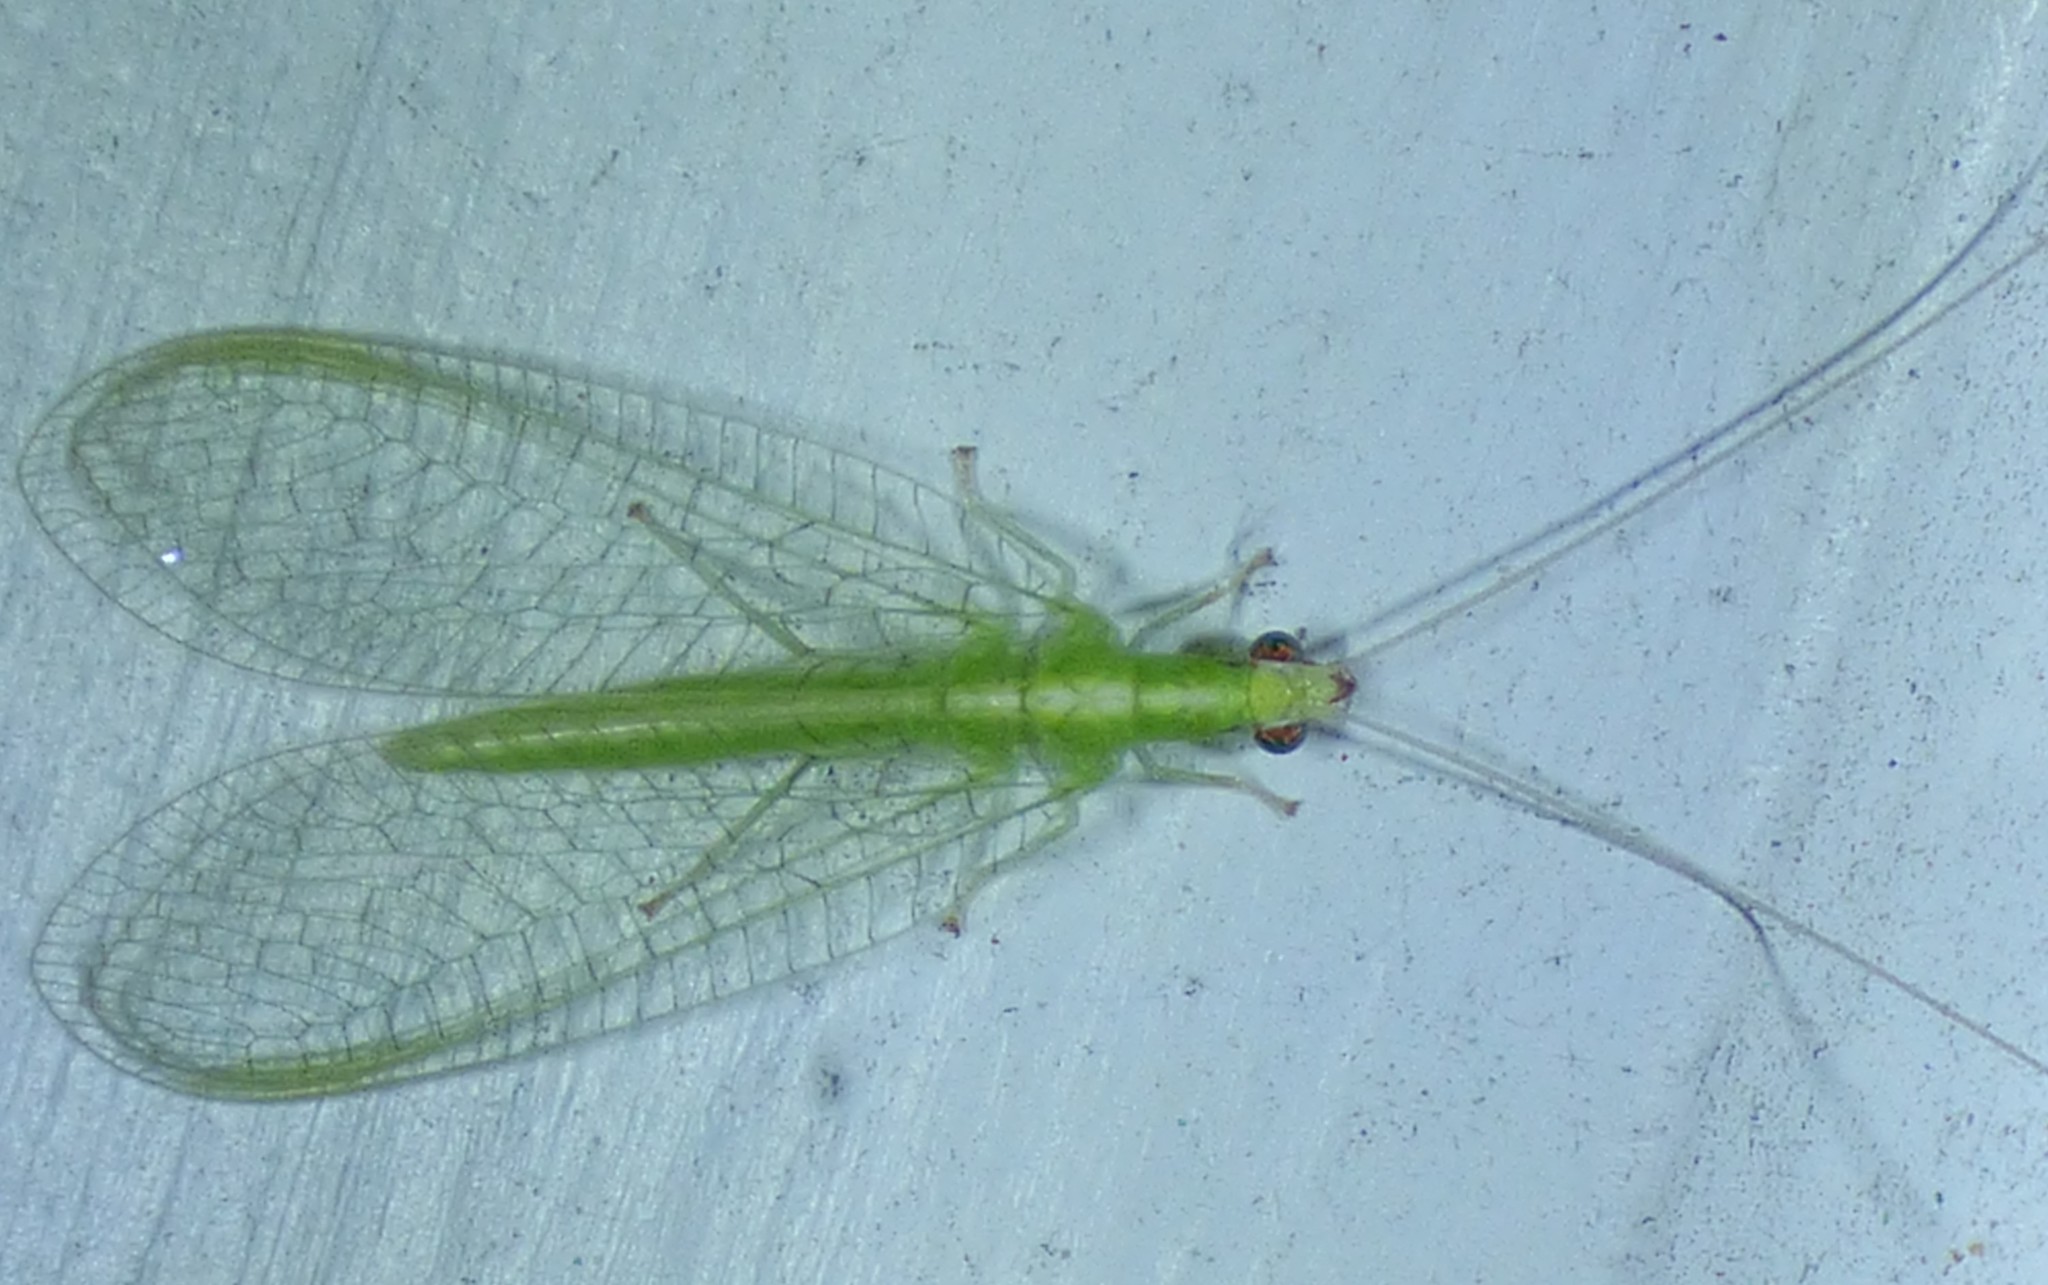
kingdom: Animalia
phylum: Arthropoda
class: Insecta
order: Neuroptera
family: Chrysopidae
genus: Chrysoperla
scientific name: Chrysoperla
